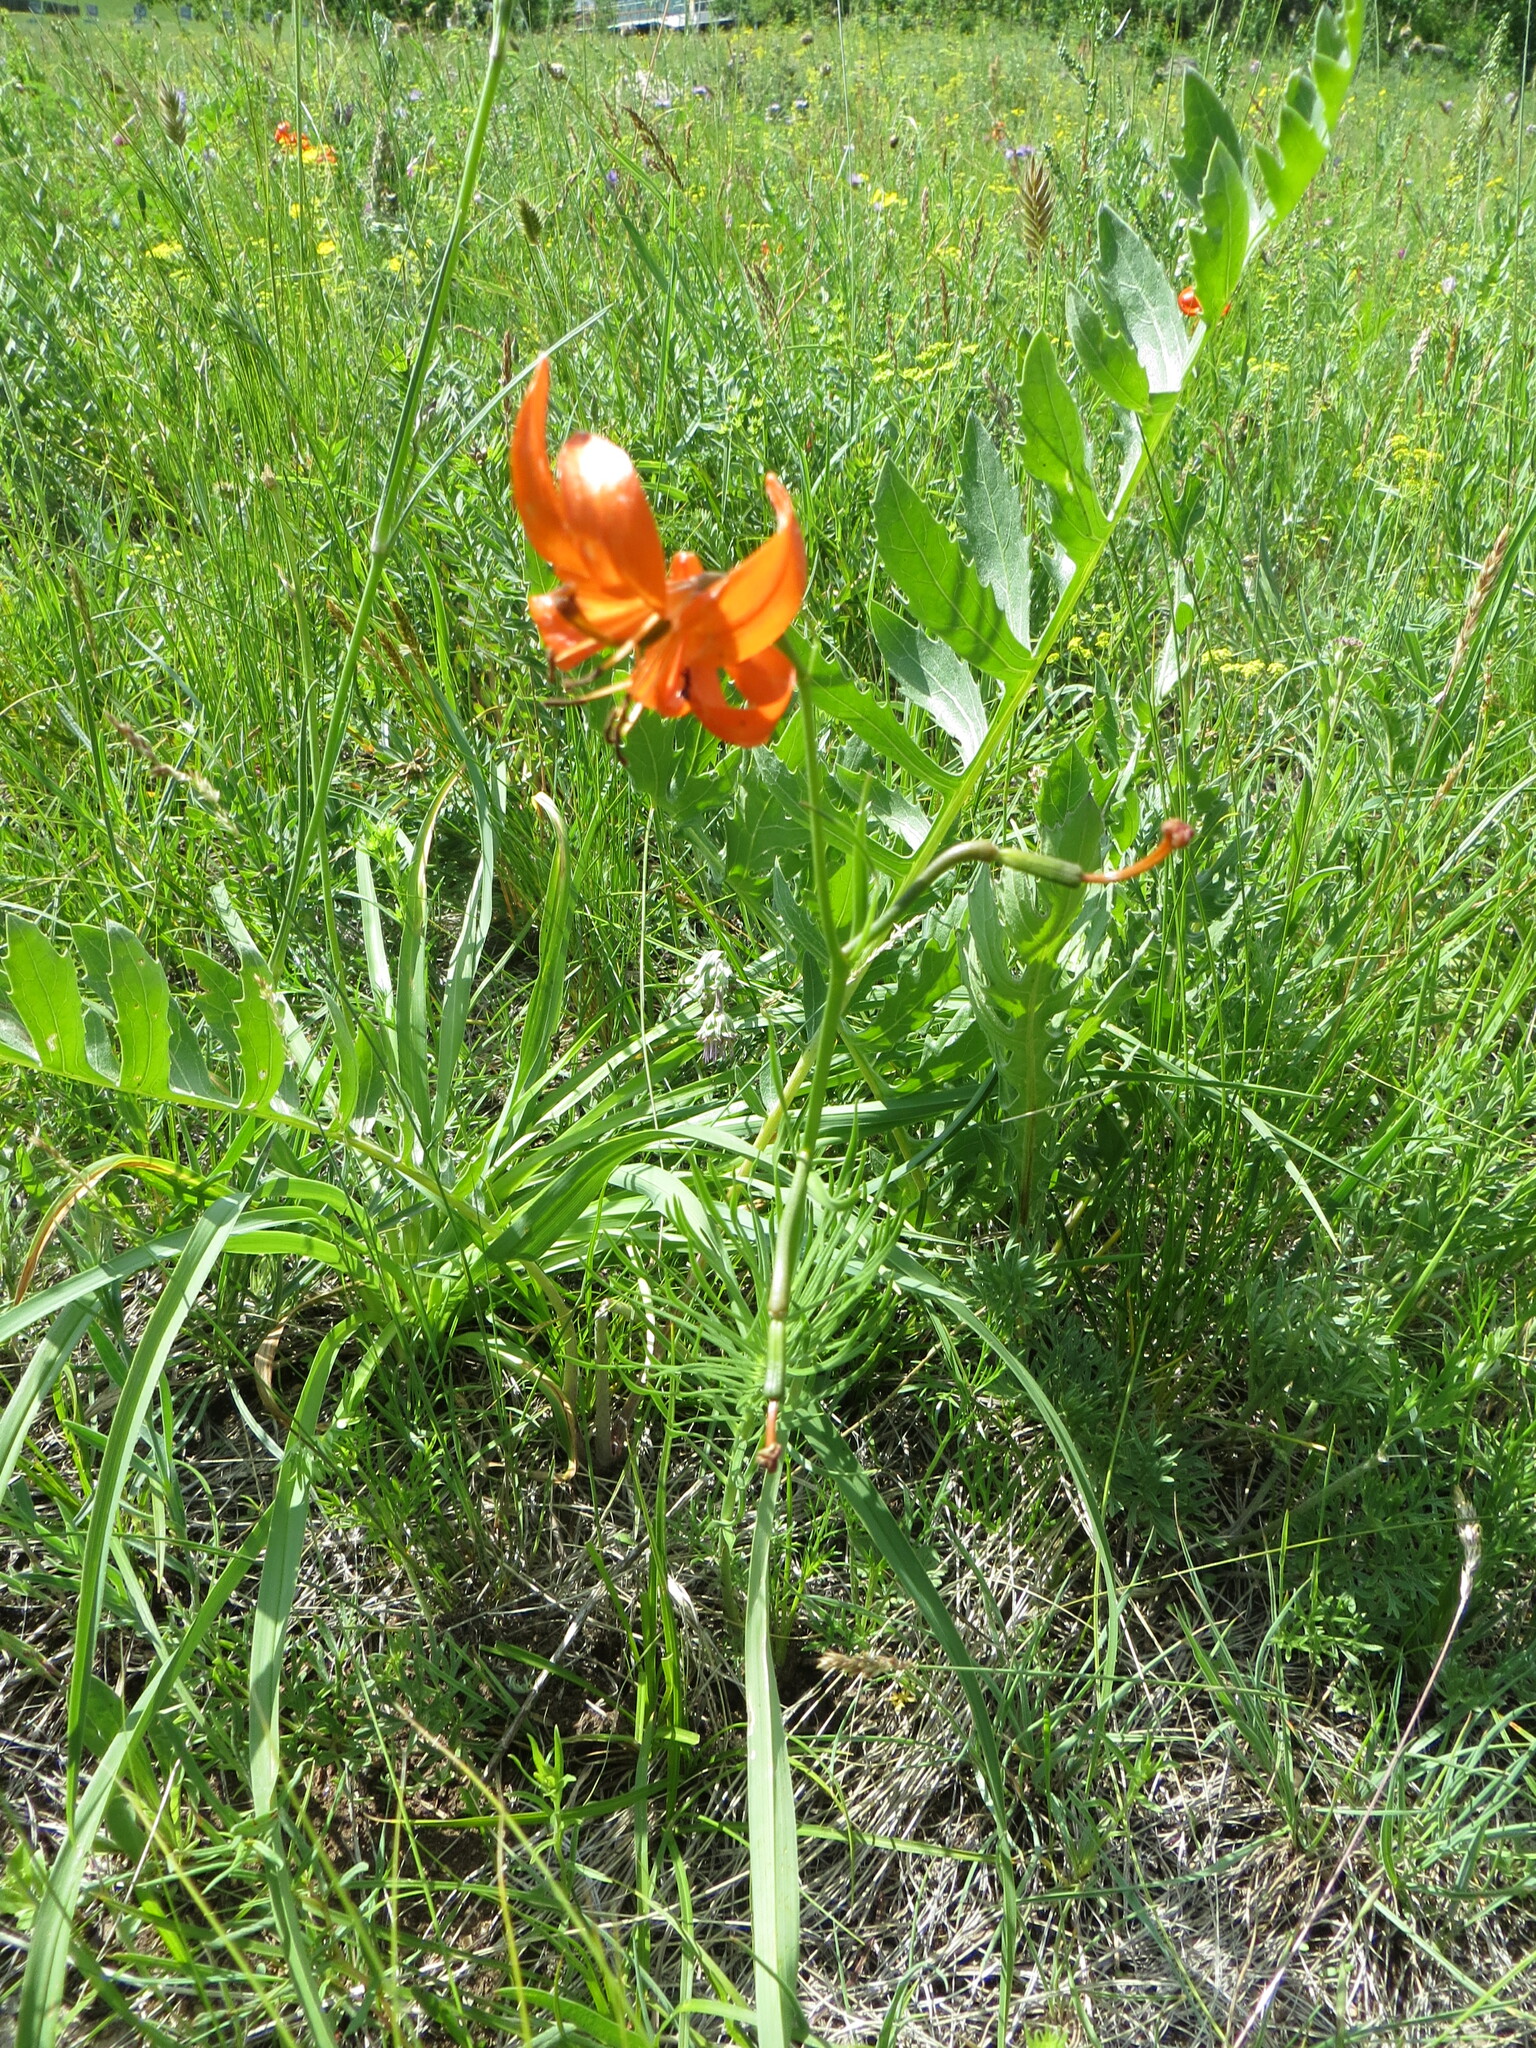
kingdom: Plantae
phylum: Tracheophyta
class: Liliopsida
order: Liliales
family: Liliaceae
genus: Lilium
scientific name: Lilium pumilum
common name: Coral lily
